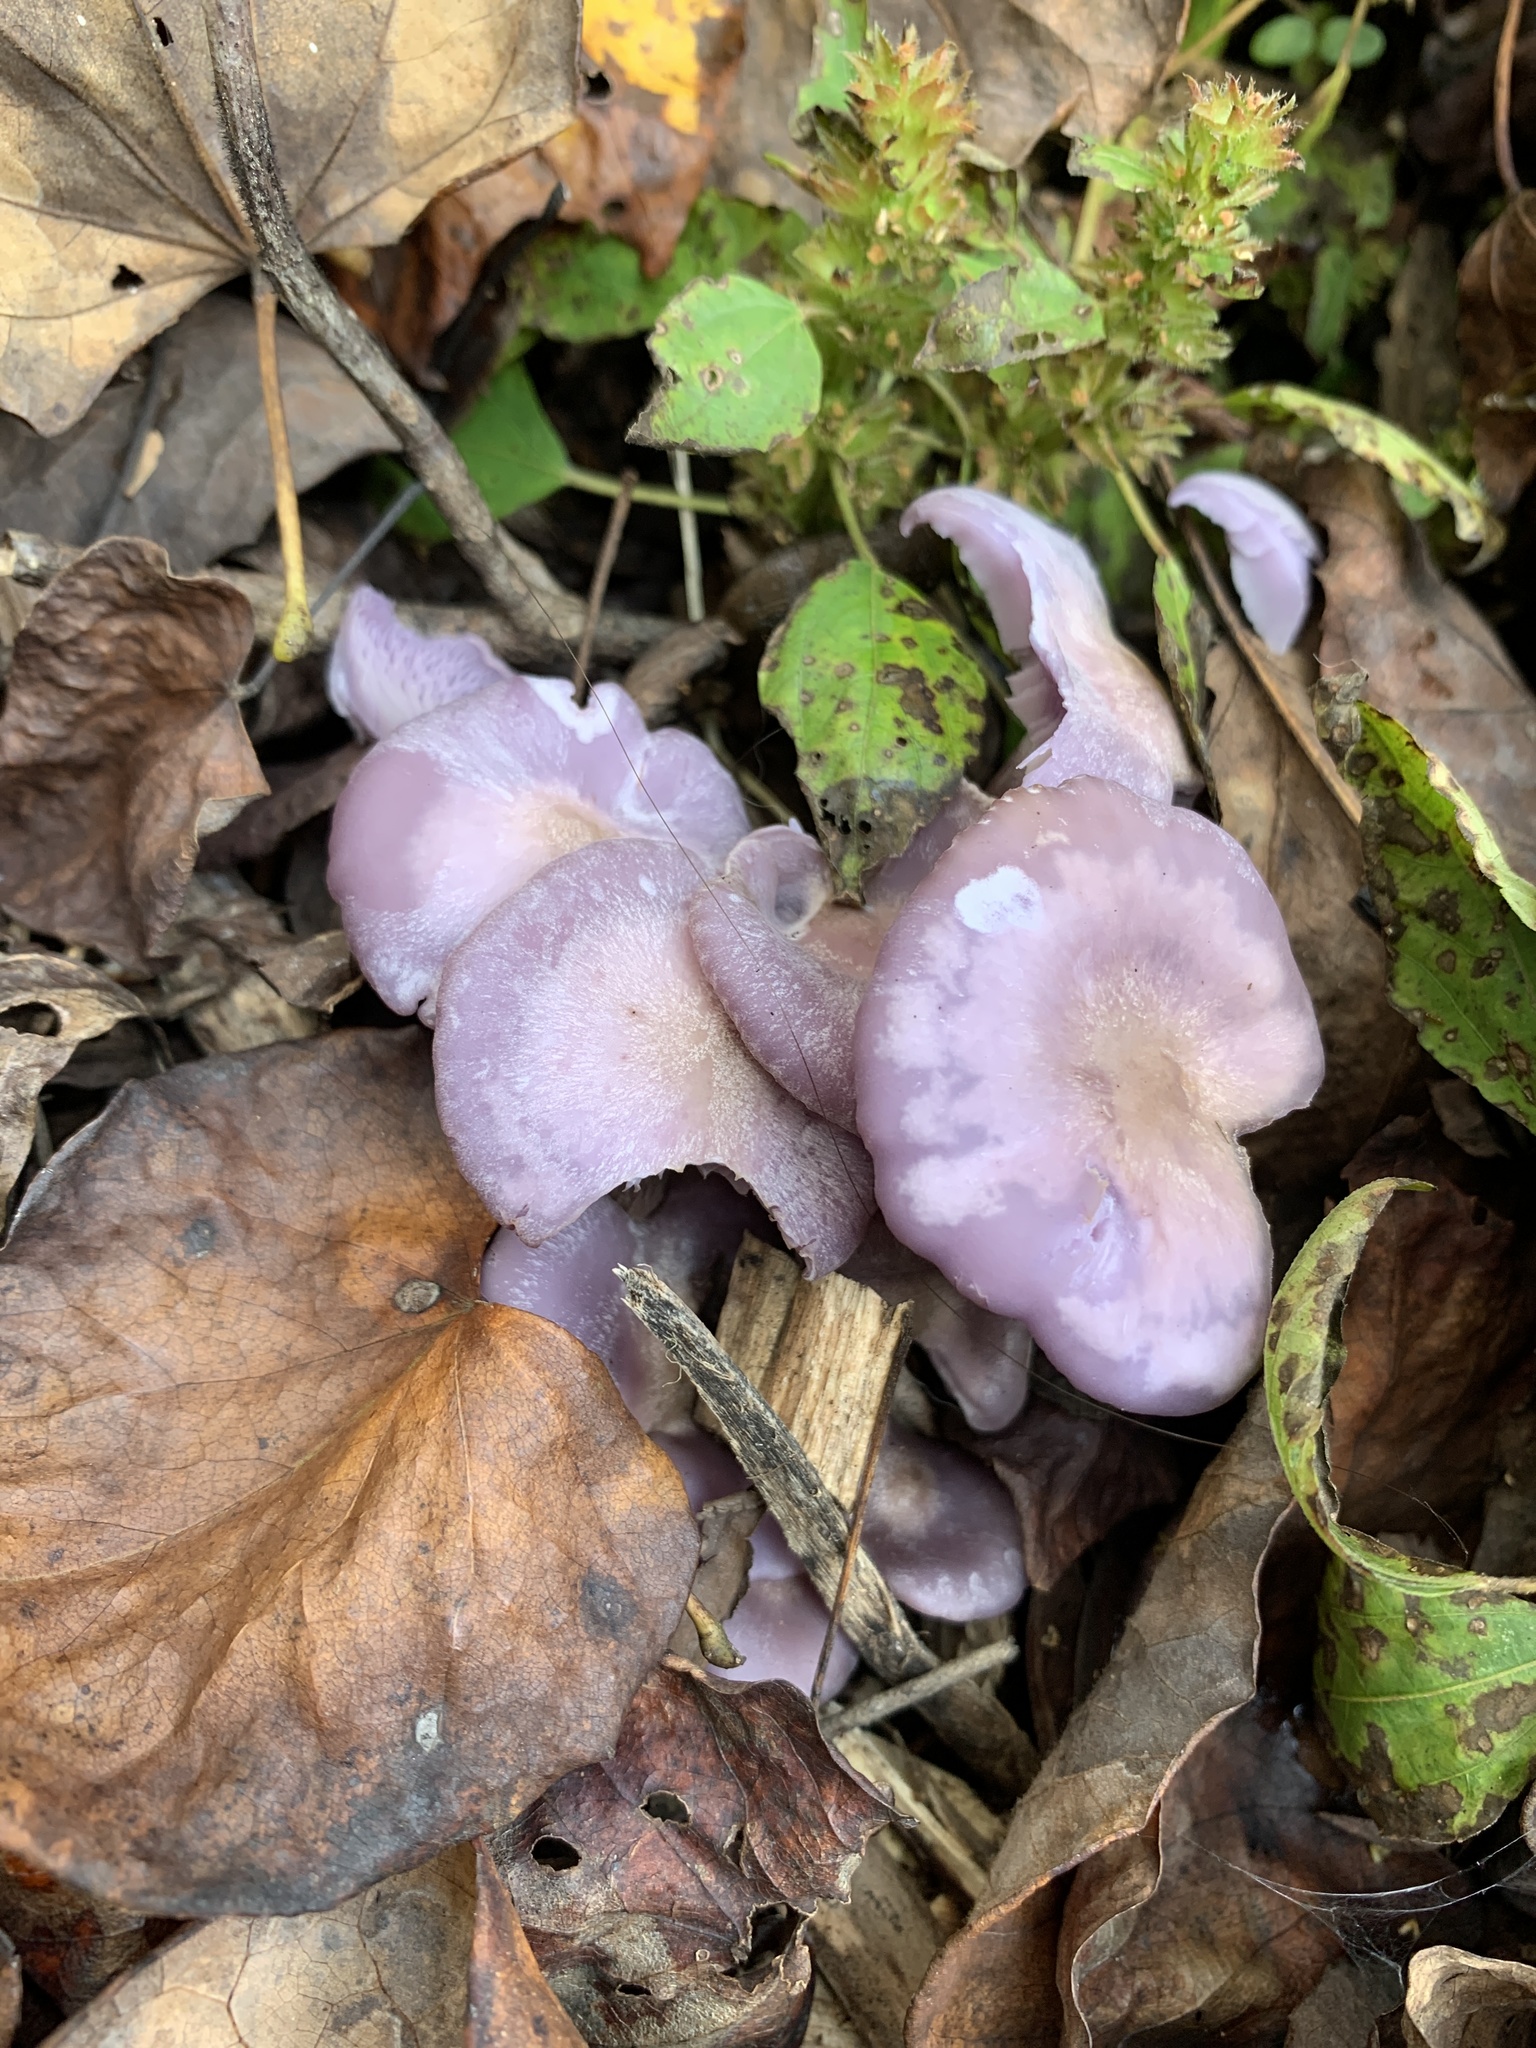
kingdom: Fungi
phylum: Basidiomycota
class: Agaricomycetes
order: Agaricales
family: Tricholomataceae
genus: Collybia
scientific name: Collybia
